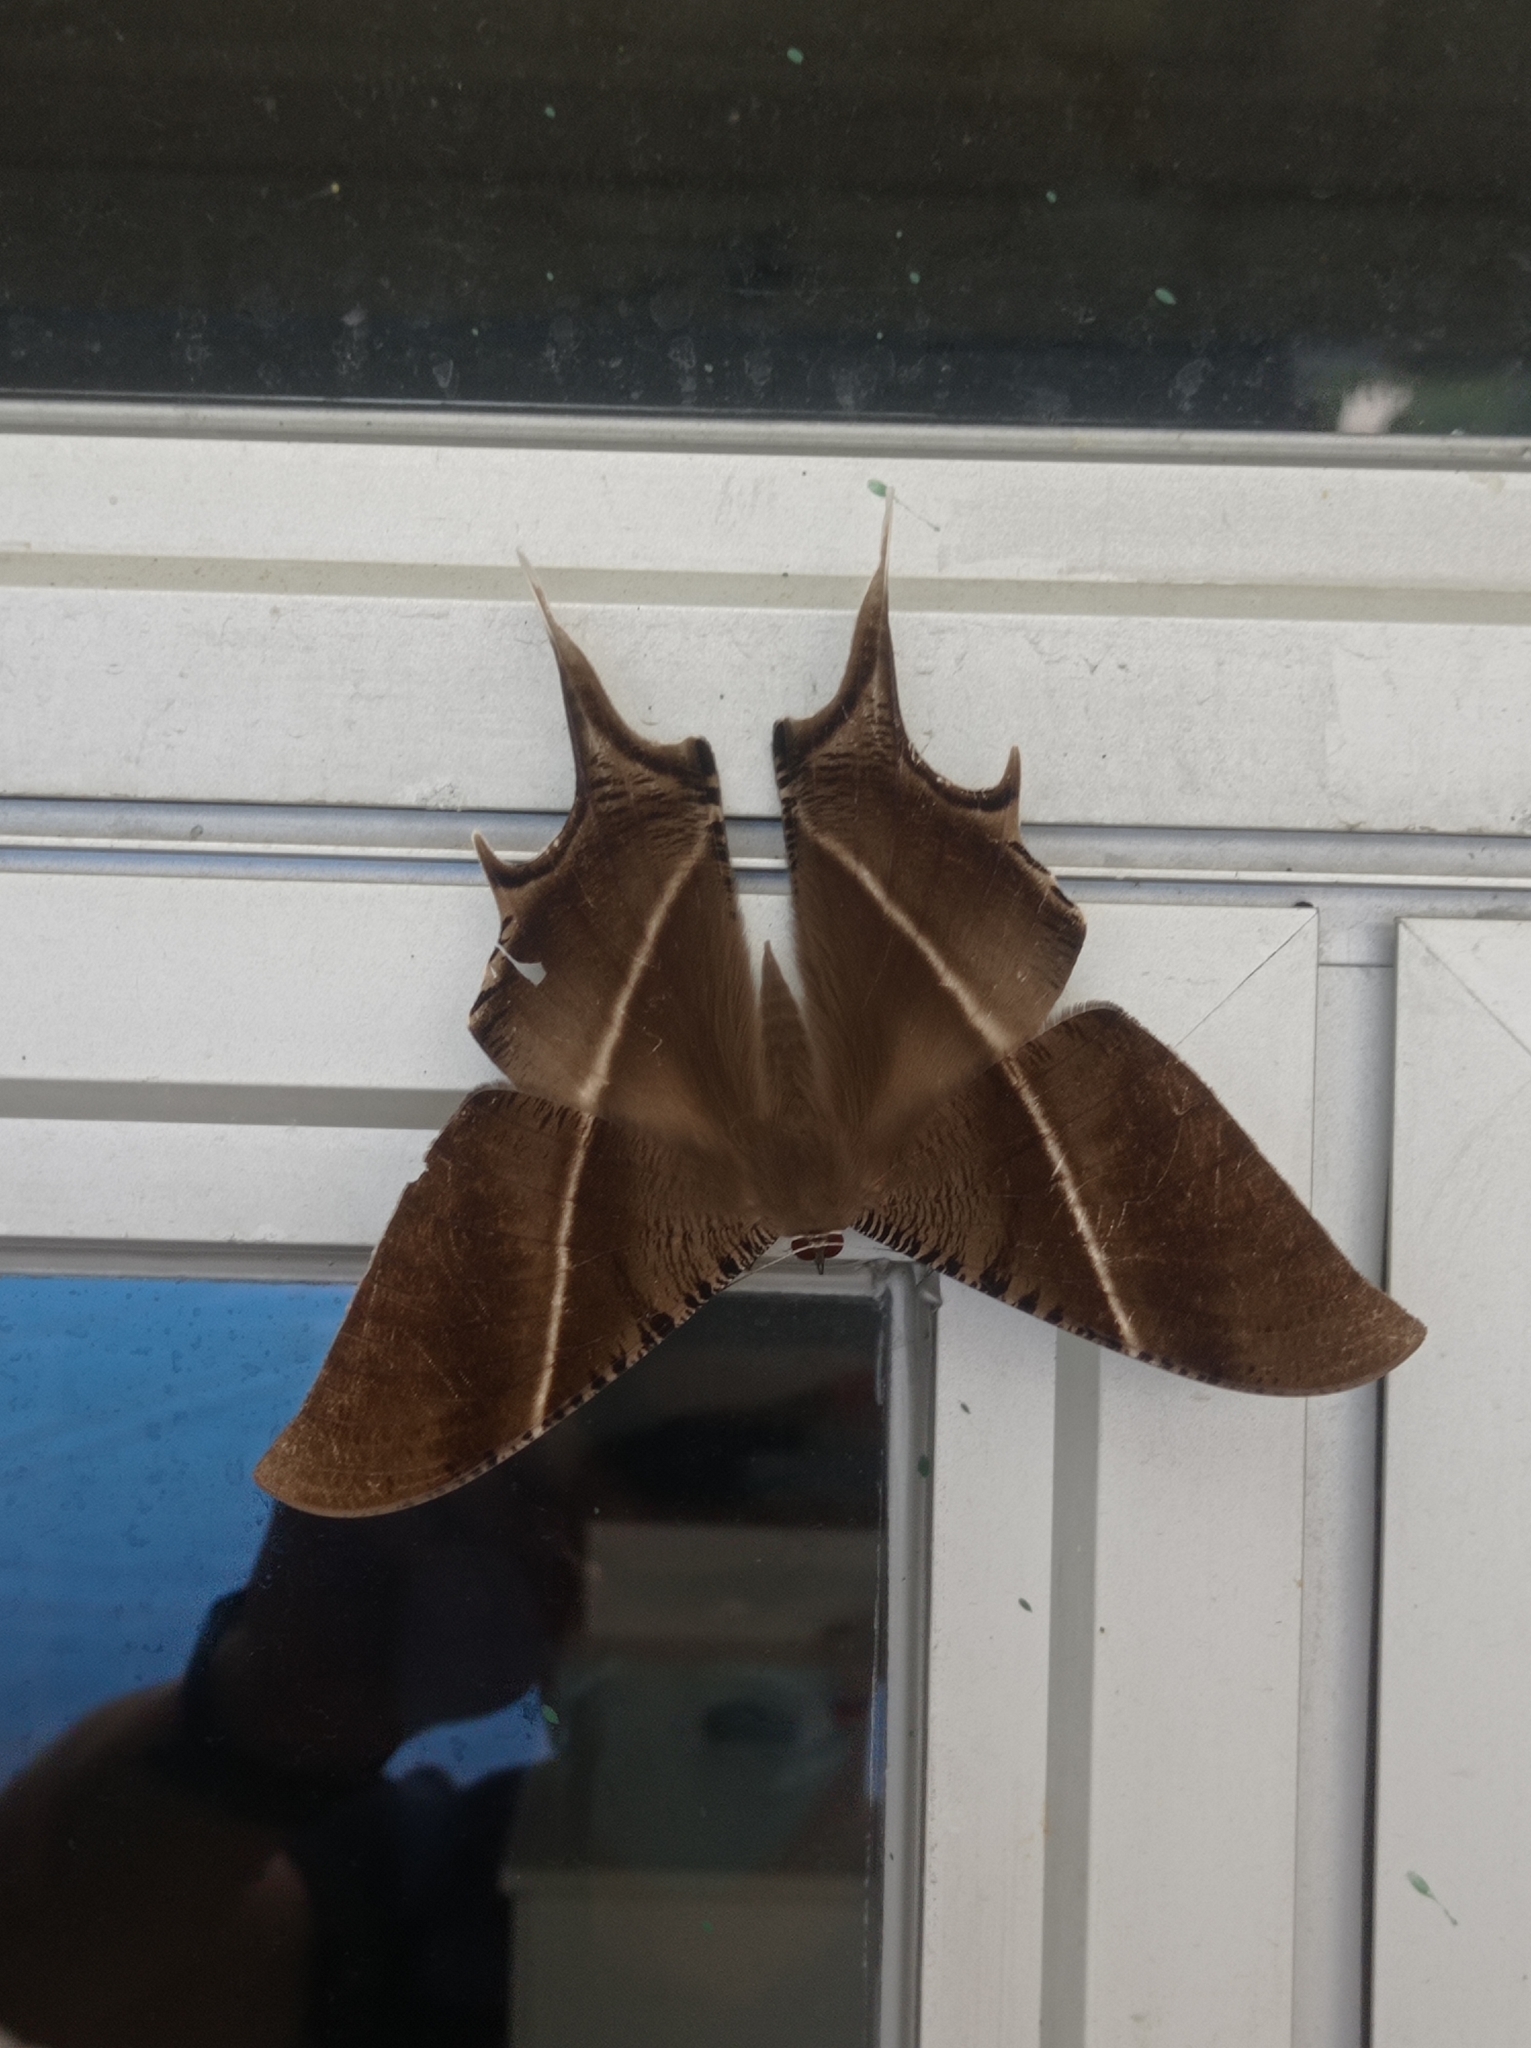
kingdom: Animalia
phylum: Arthropoda
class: Insecta
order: Lepidoptera
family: Uraniidae
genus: Lyssa
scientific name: Lyssa zampa
